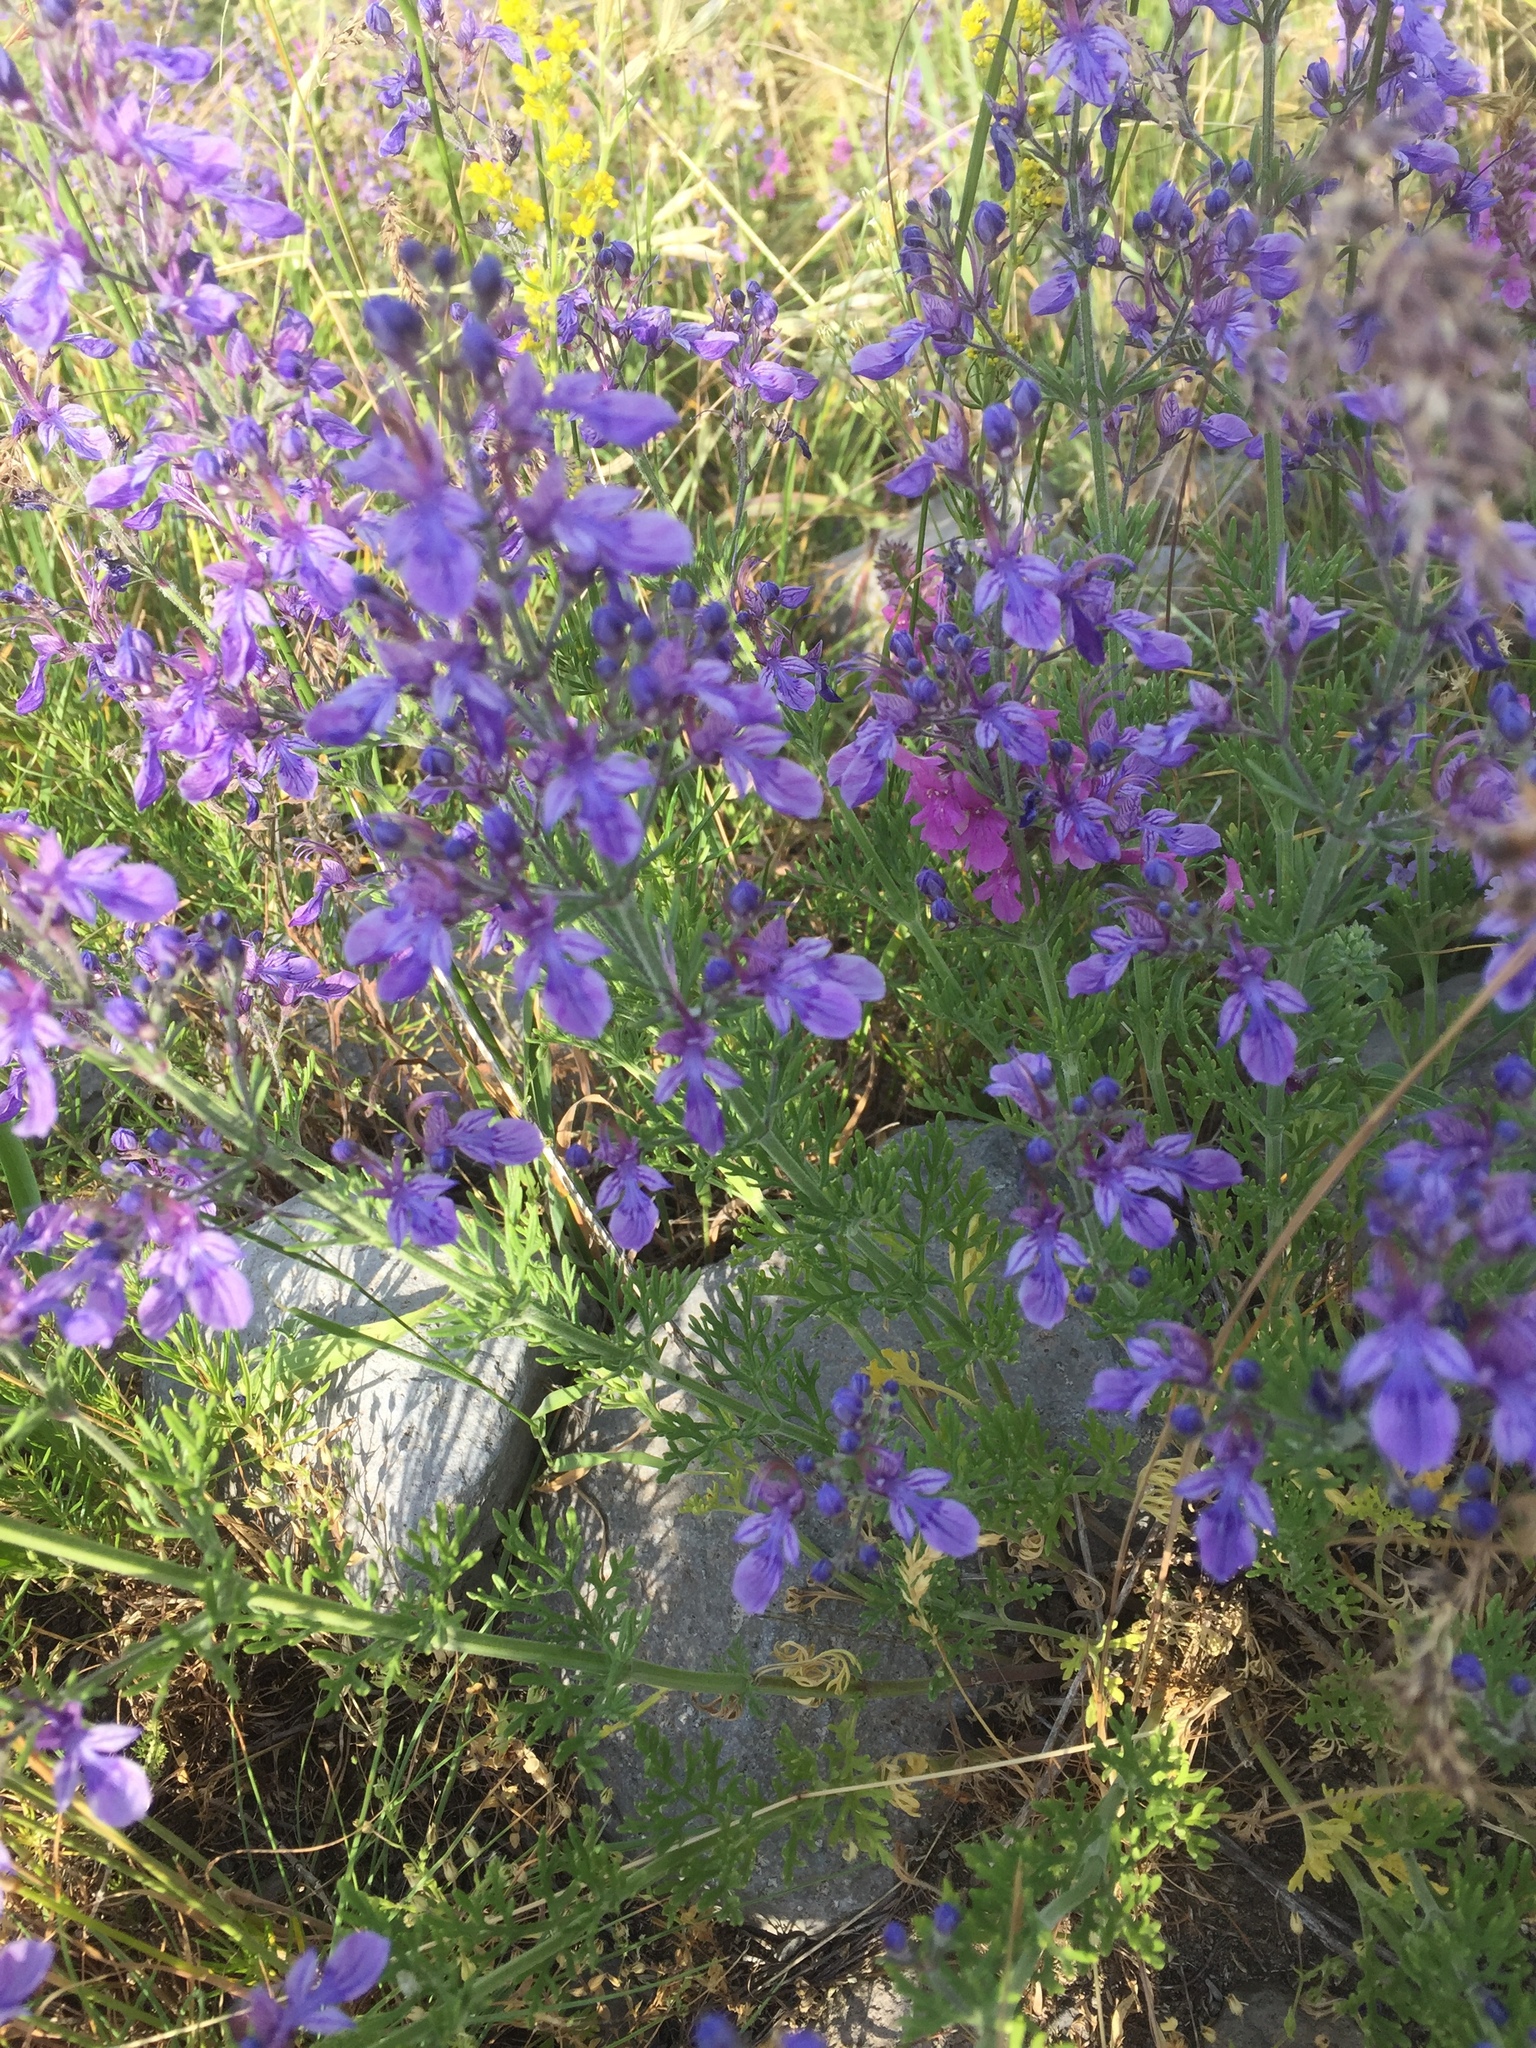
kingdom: Plantae
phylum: Tracheophyta
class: Magnoliopsida
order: Lamiales
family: Lamiaceae
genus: Teucrium
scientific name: Teucrium orientale
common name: Oriental germander
